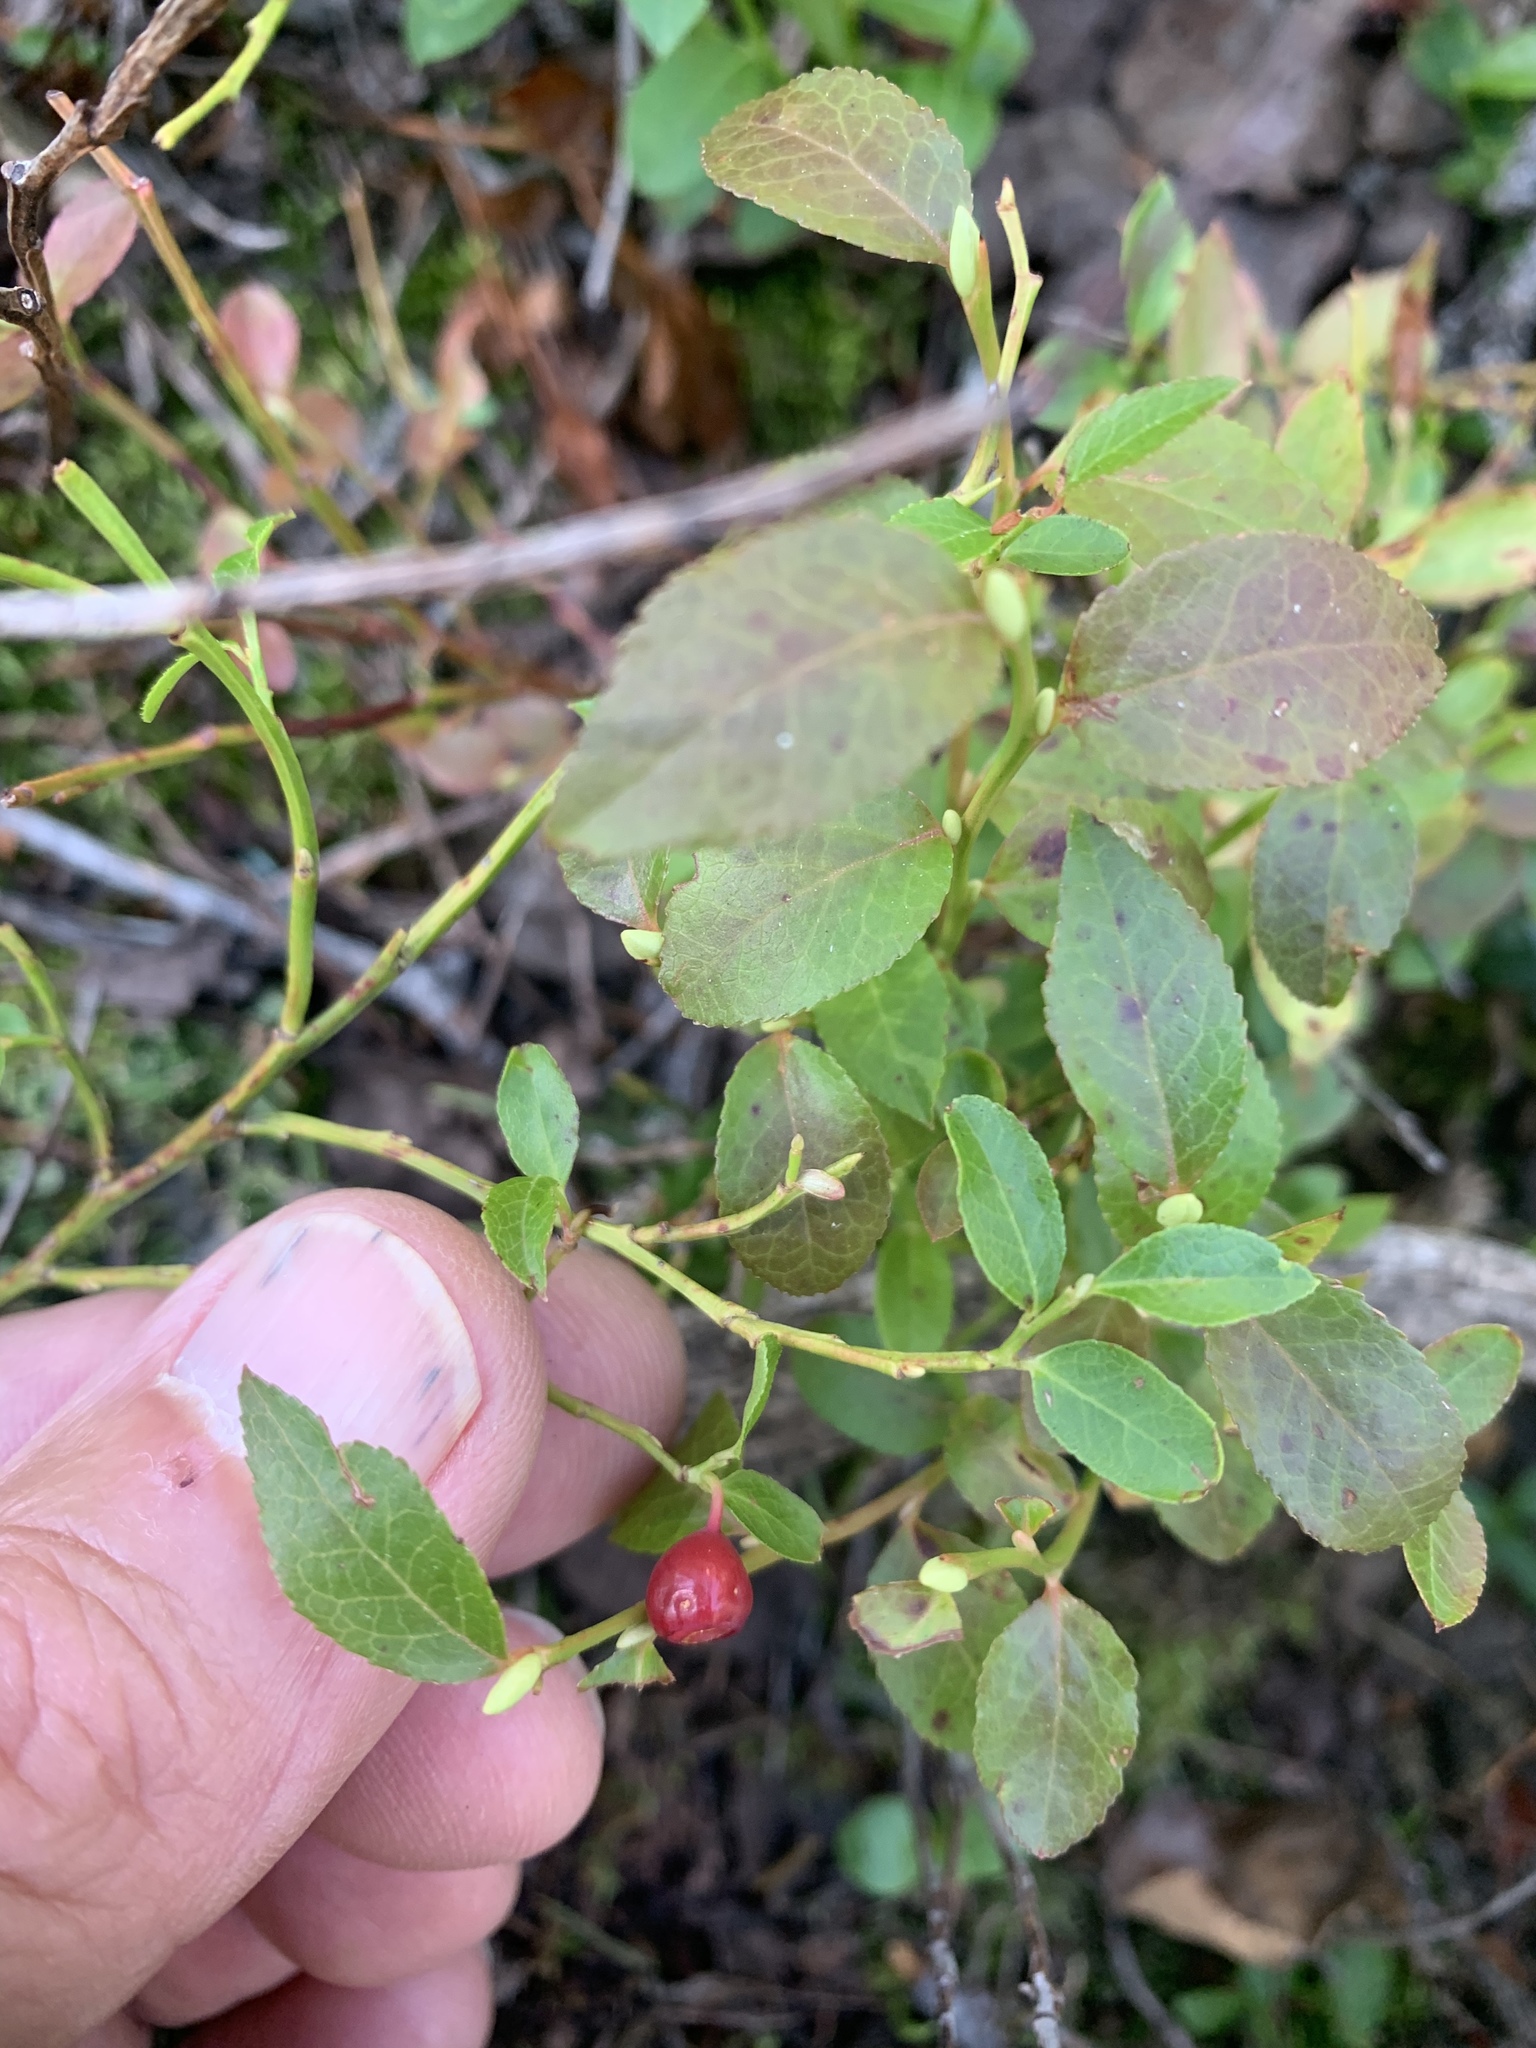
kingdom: Plantae
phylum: Tracheophyta
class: Magnoliopsida
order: Ericales
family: Ericaceae
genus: Vaccinium
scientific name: Vaccinium myrtillus
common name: Bilberry
